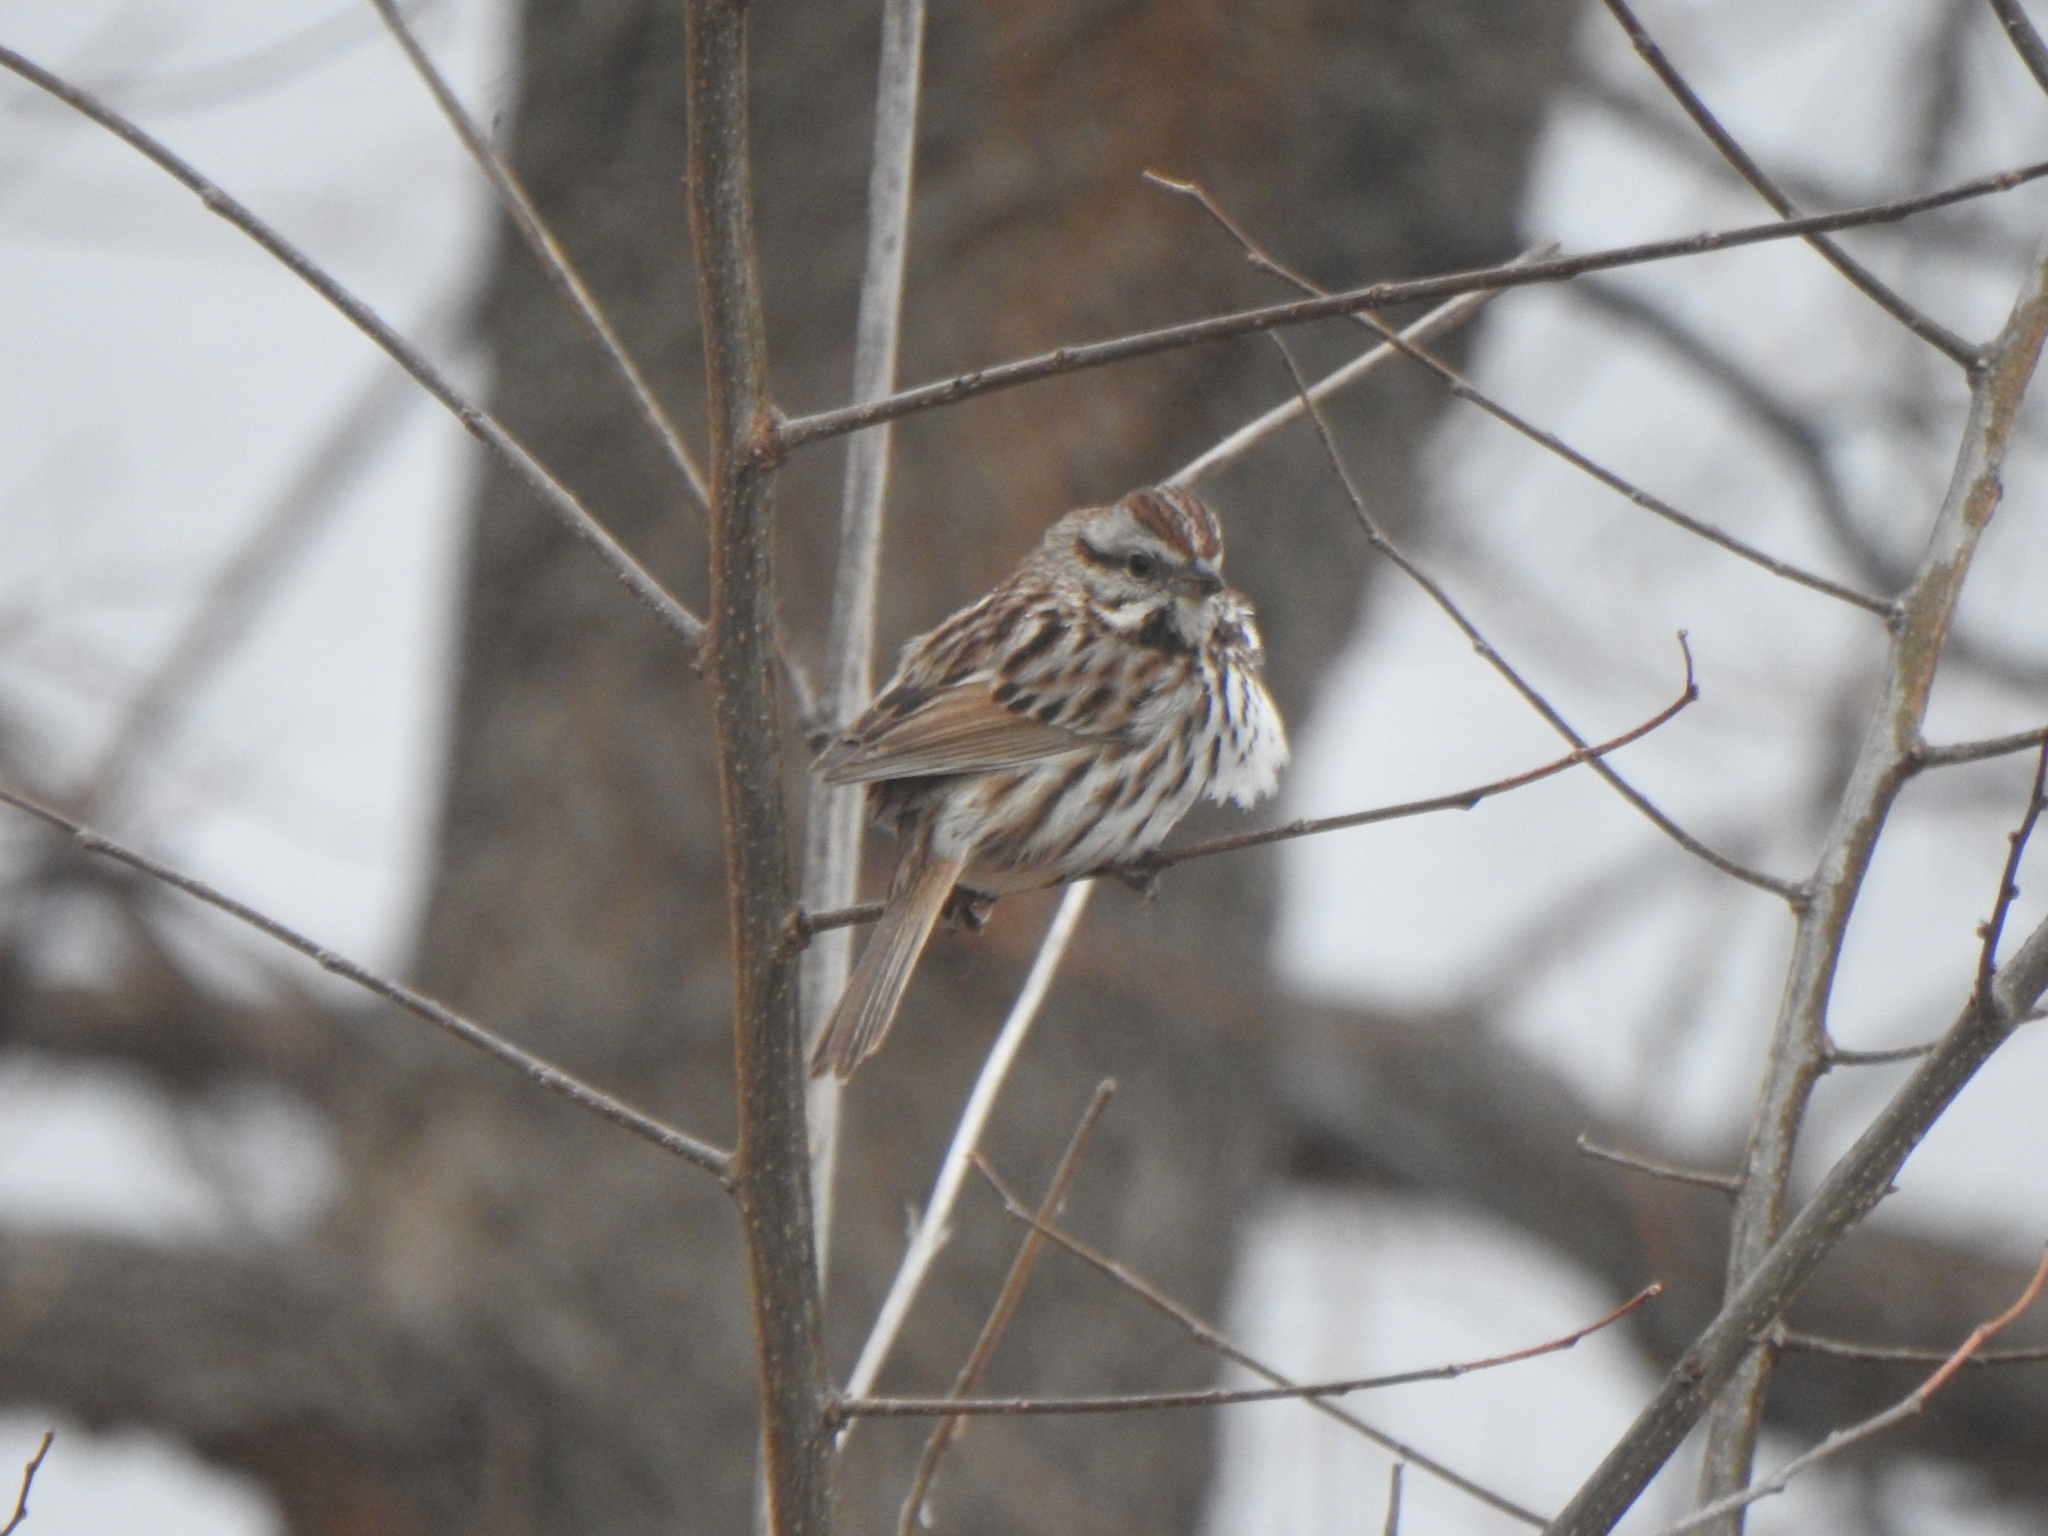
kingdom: Animalia
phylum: Chordata
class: Aves
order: Passeriformes
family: Passerellidae
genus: Melospiza
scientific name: Melospiza melodia
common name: Song sparrow
